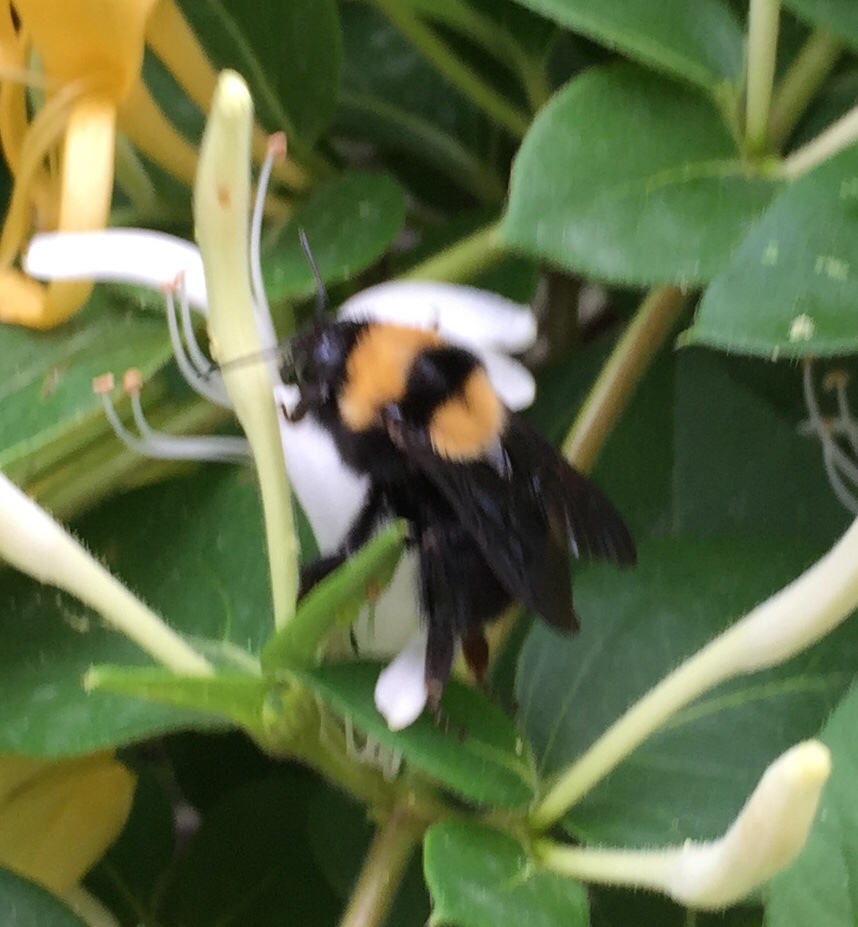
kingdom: Animalia
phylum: Arthropoda
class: Insecta
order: Hymenoptera
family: Apidae
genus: Bombus
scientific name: Bombus argillaceus
